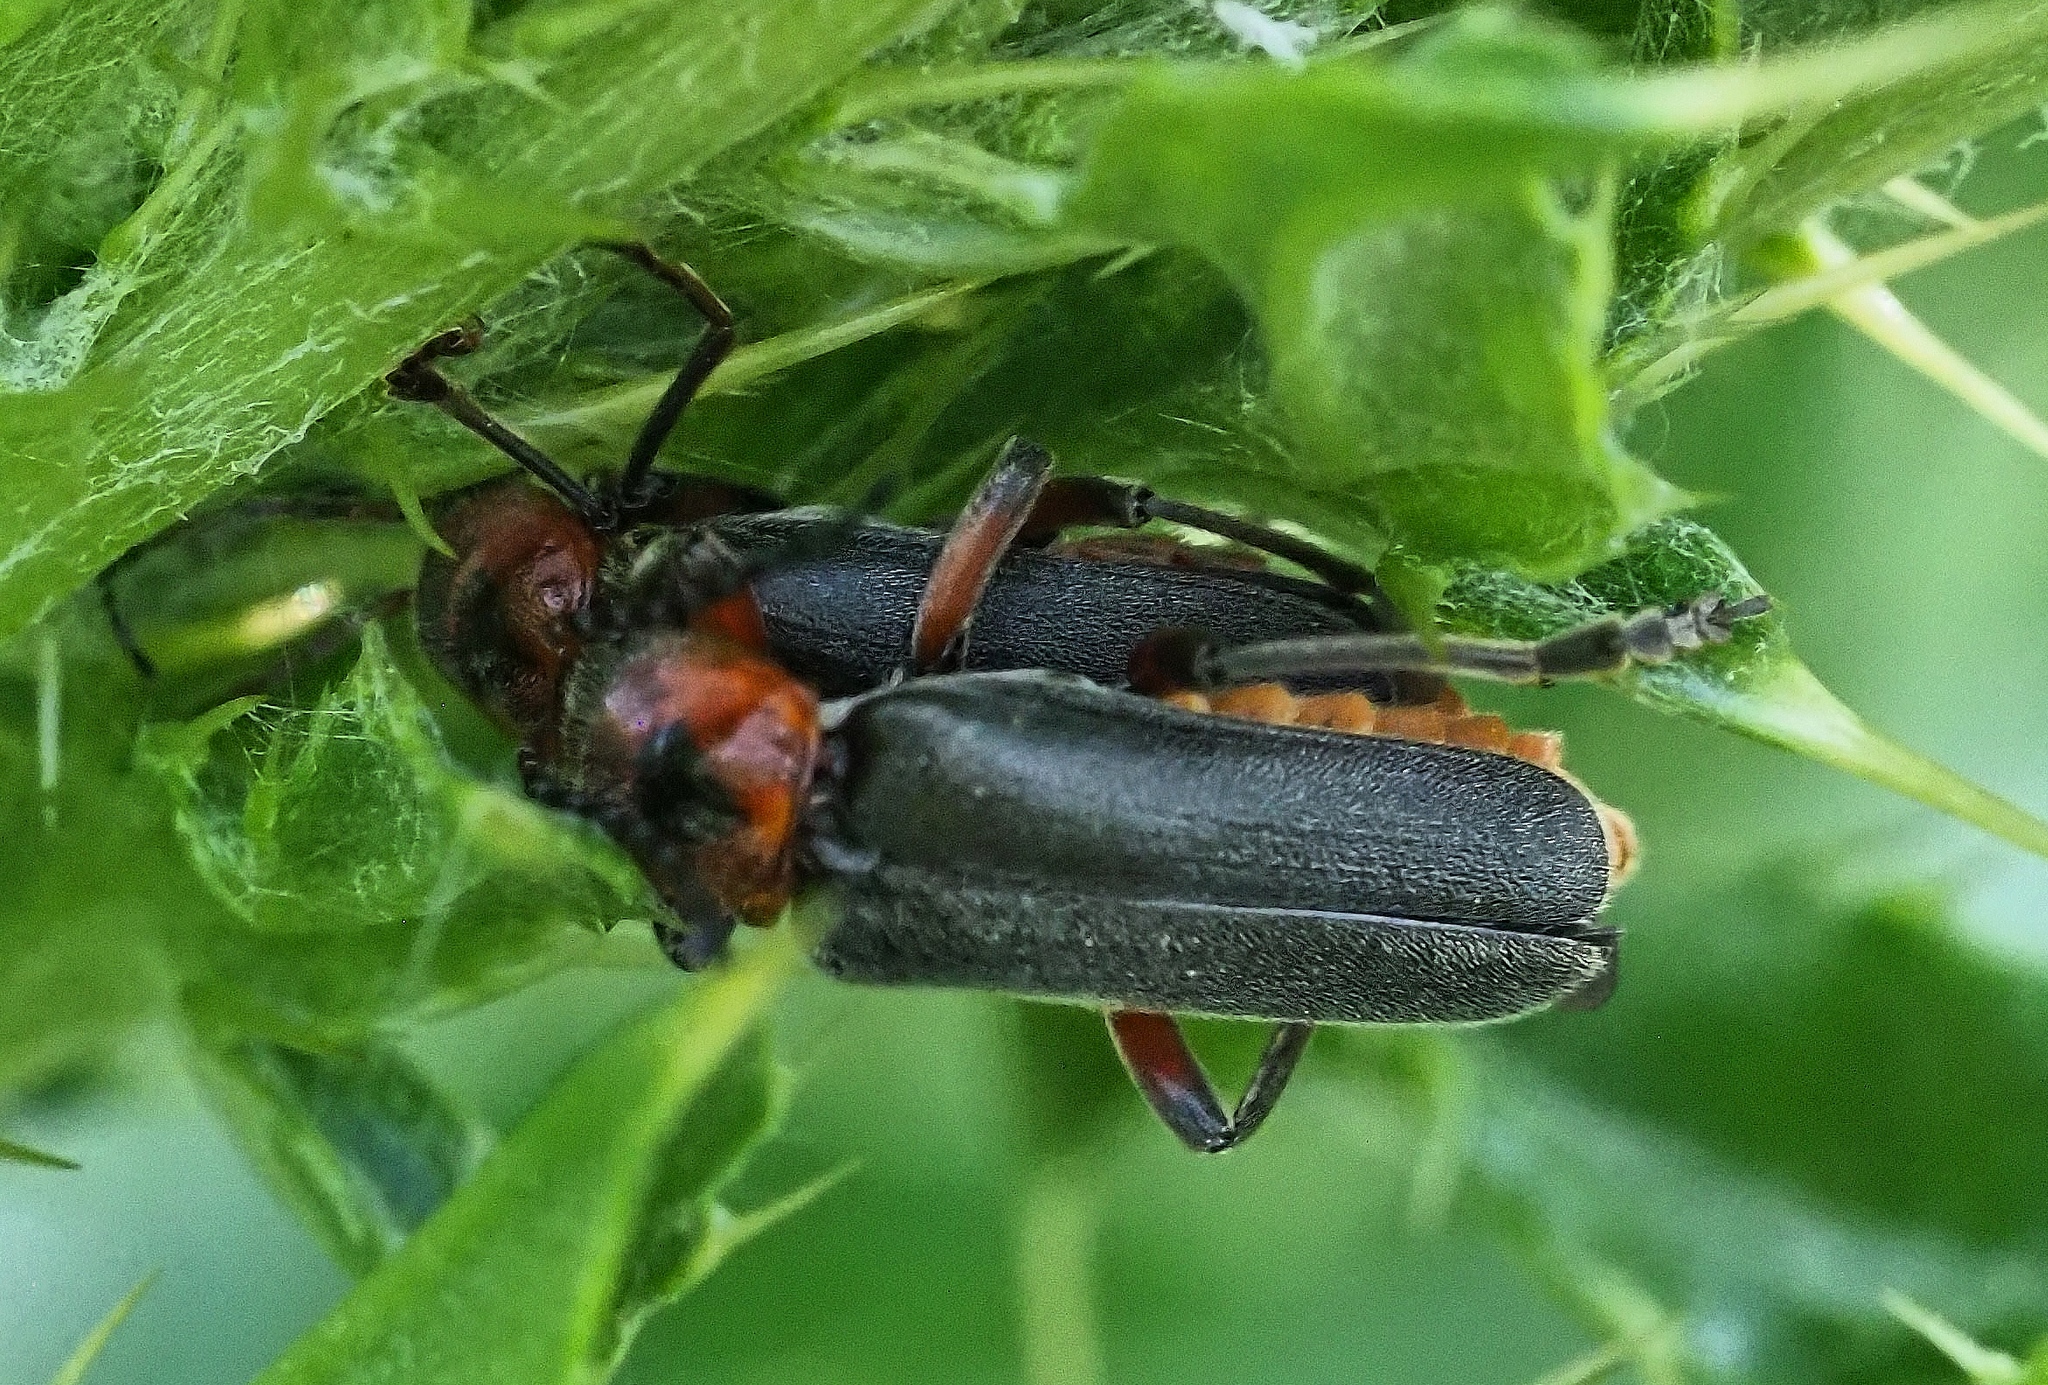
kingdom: Animalia
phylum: Arthropoda
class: Insecta
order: Coleoptera
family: Cantharidae
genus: Cantharis
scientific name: Cantharis rustica
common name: Soldier beetle
